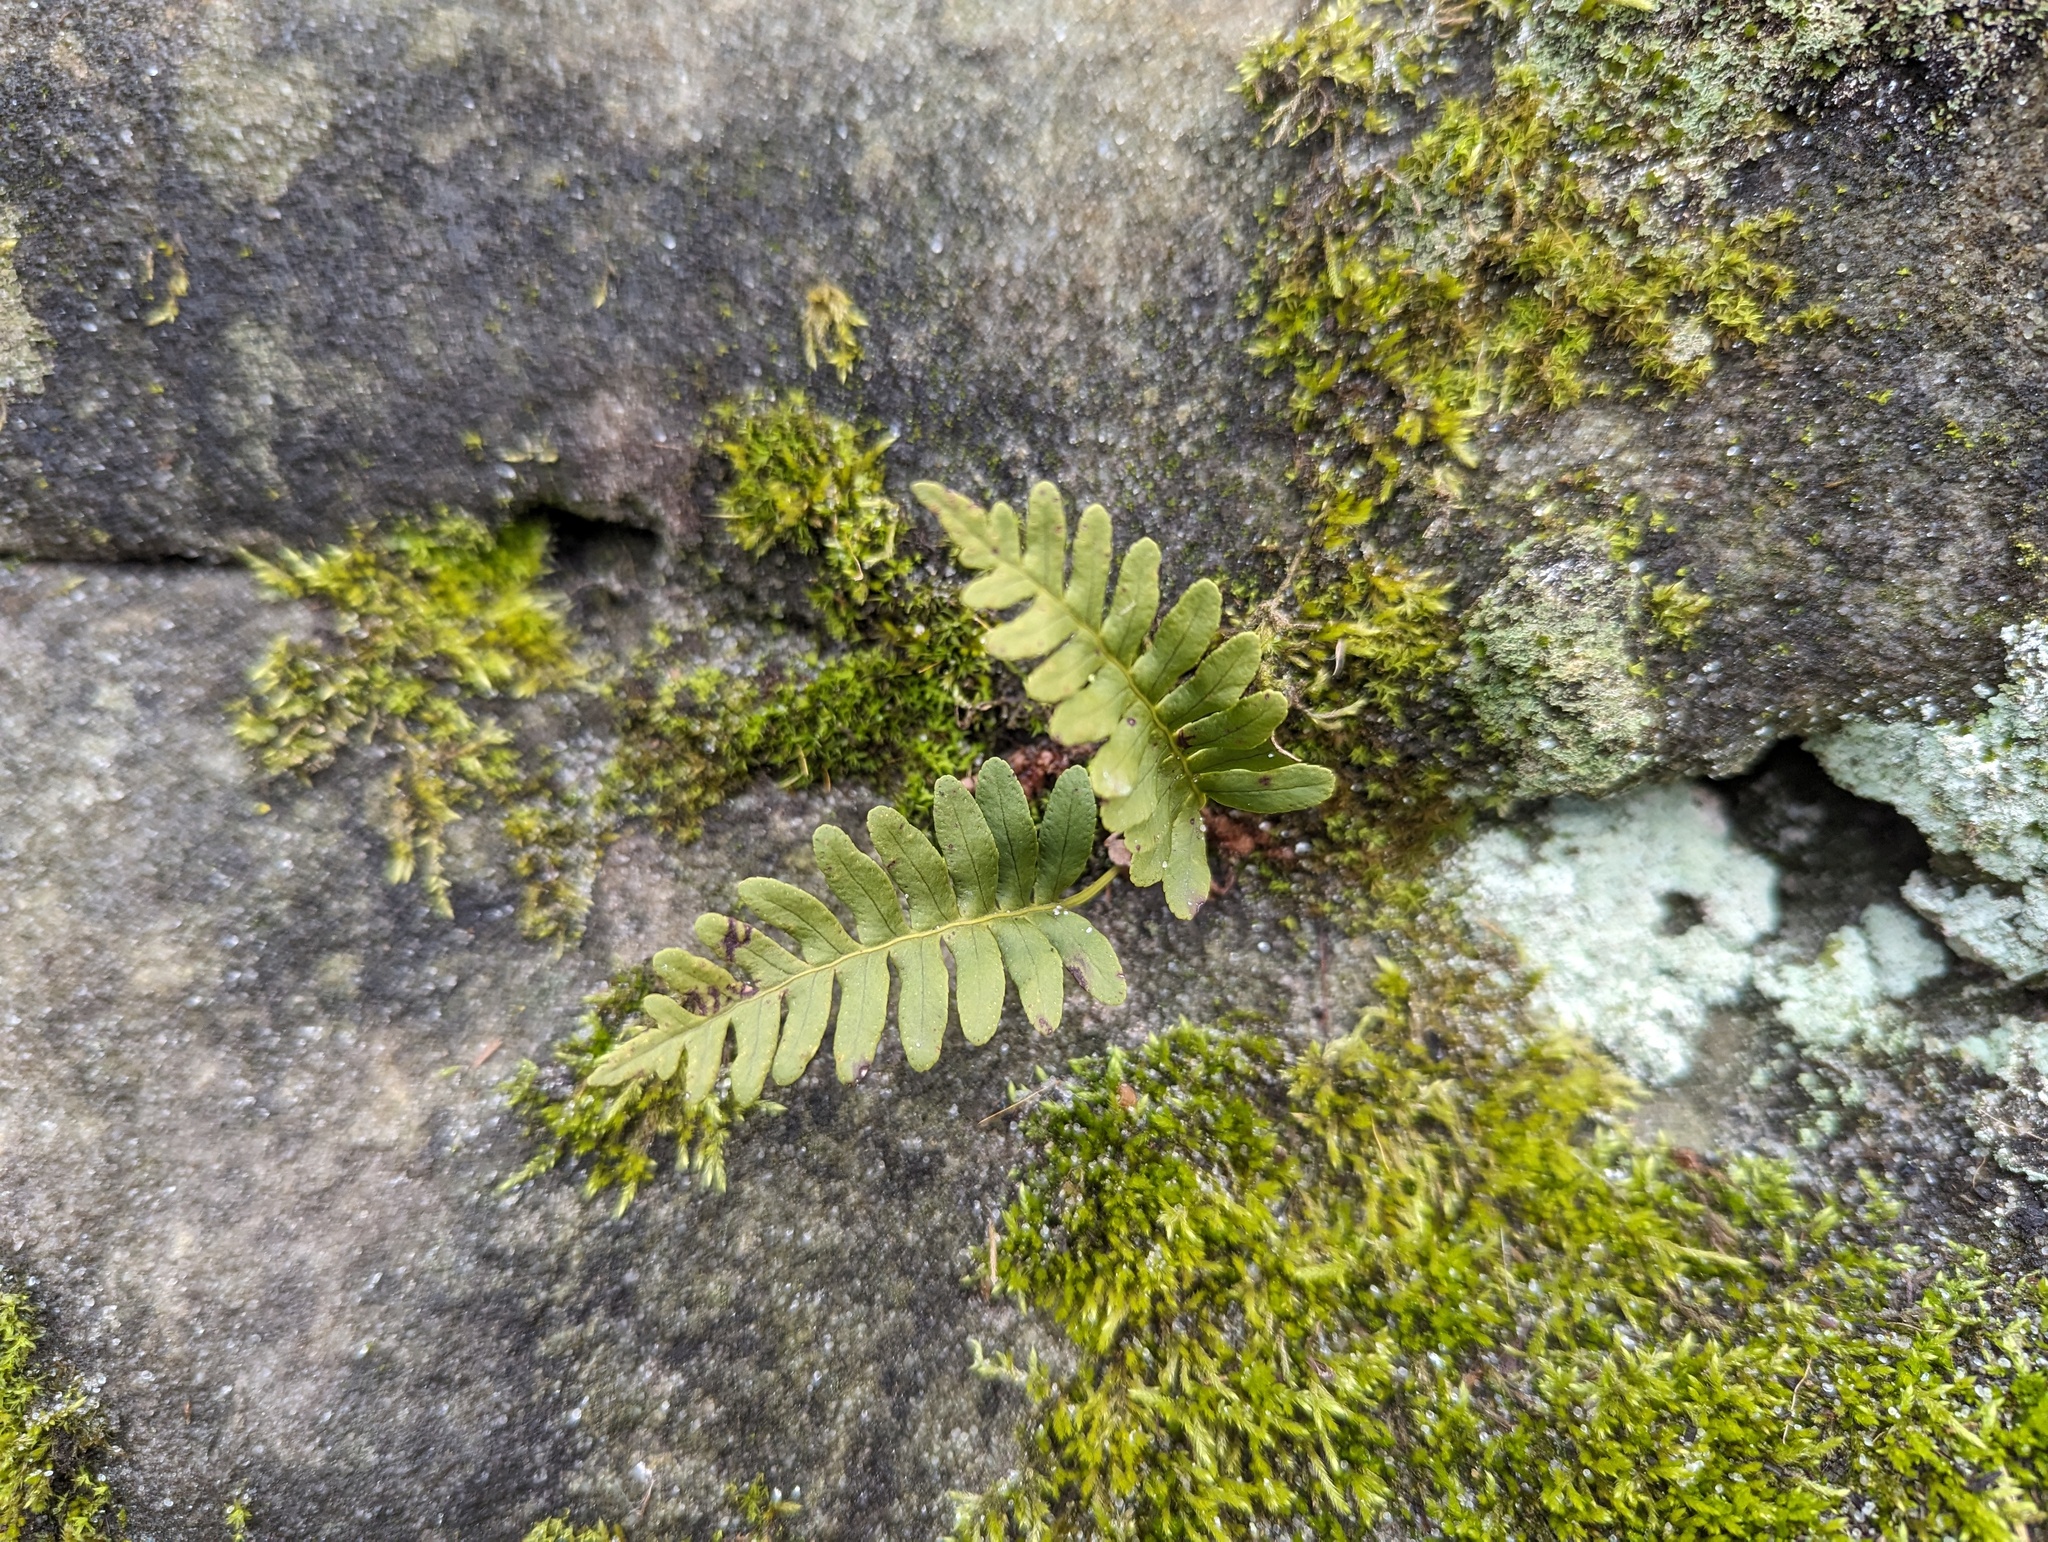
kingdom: Plantae
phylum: Tracheophyta
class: Polypodiopsida
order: Polypodiales
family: Polypodiaceae
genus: Polypodium
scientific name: Polypodium virginianum
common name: American wall fern
